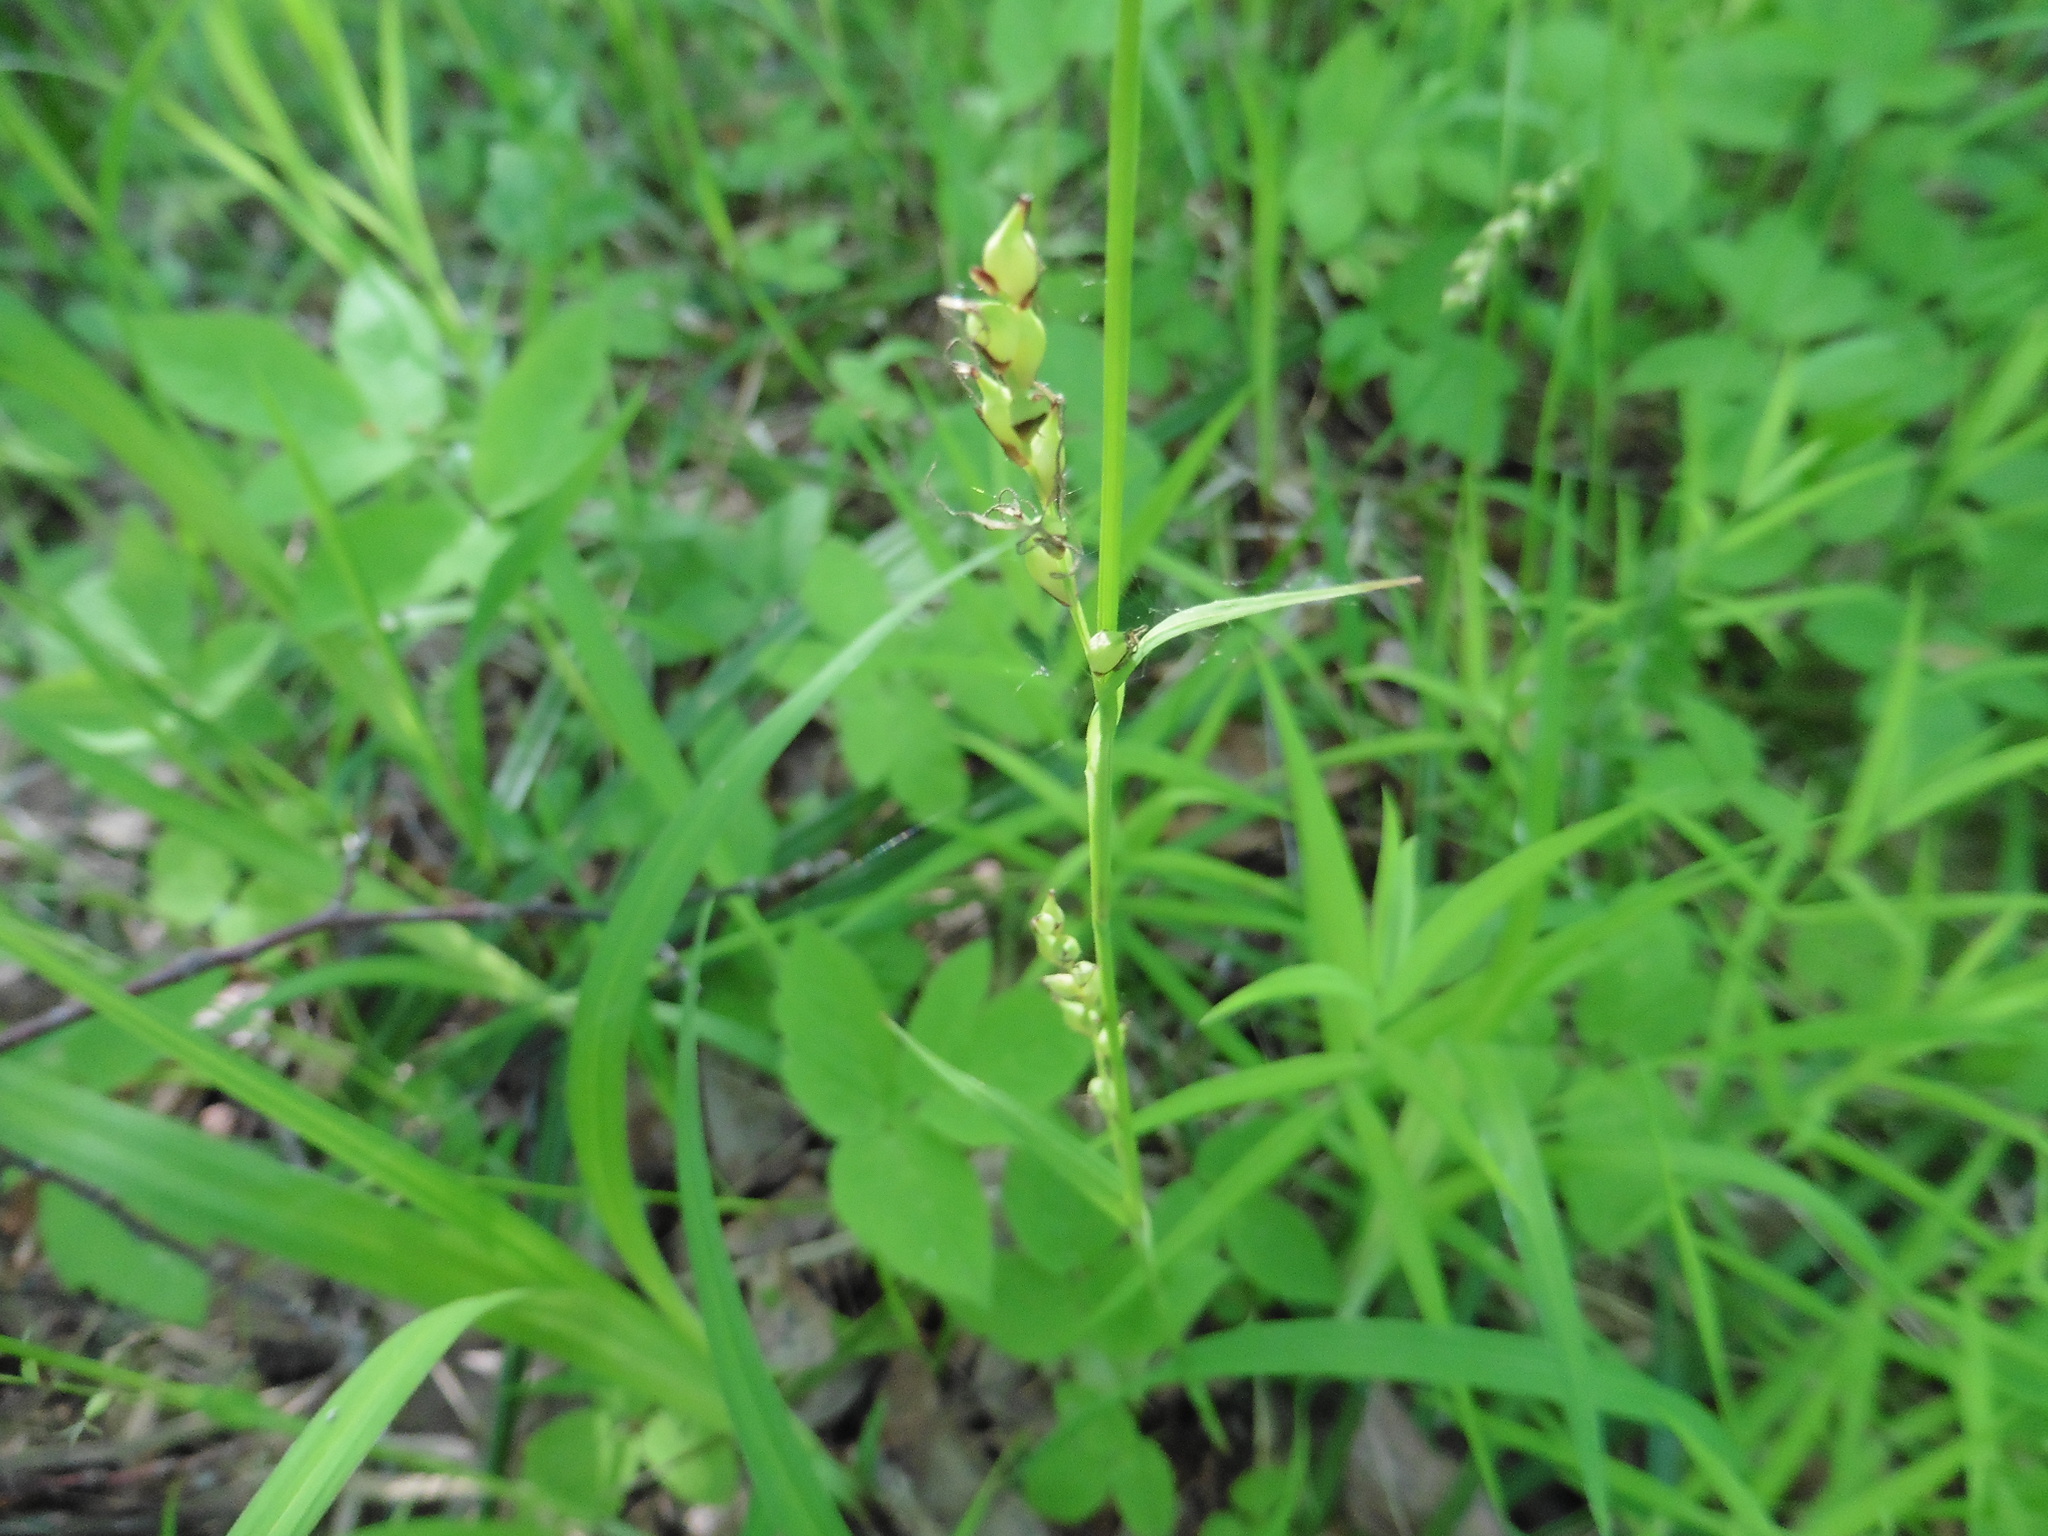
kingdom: Plantae
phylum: Tracheophyta
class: Liliopsida
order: Poales
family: Cyperaceae
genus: Carex
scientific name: Carex pilosa
